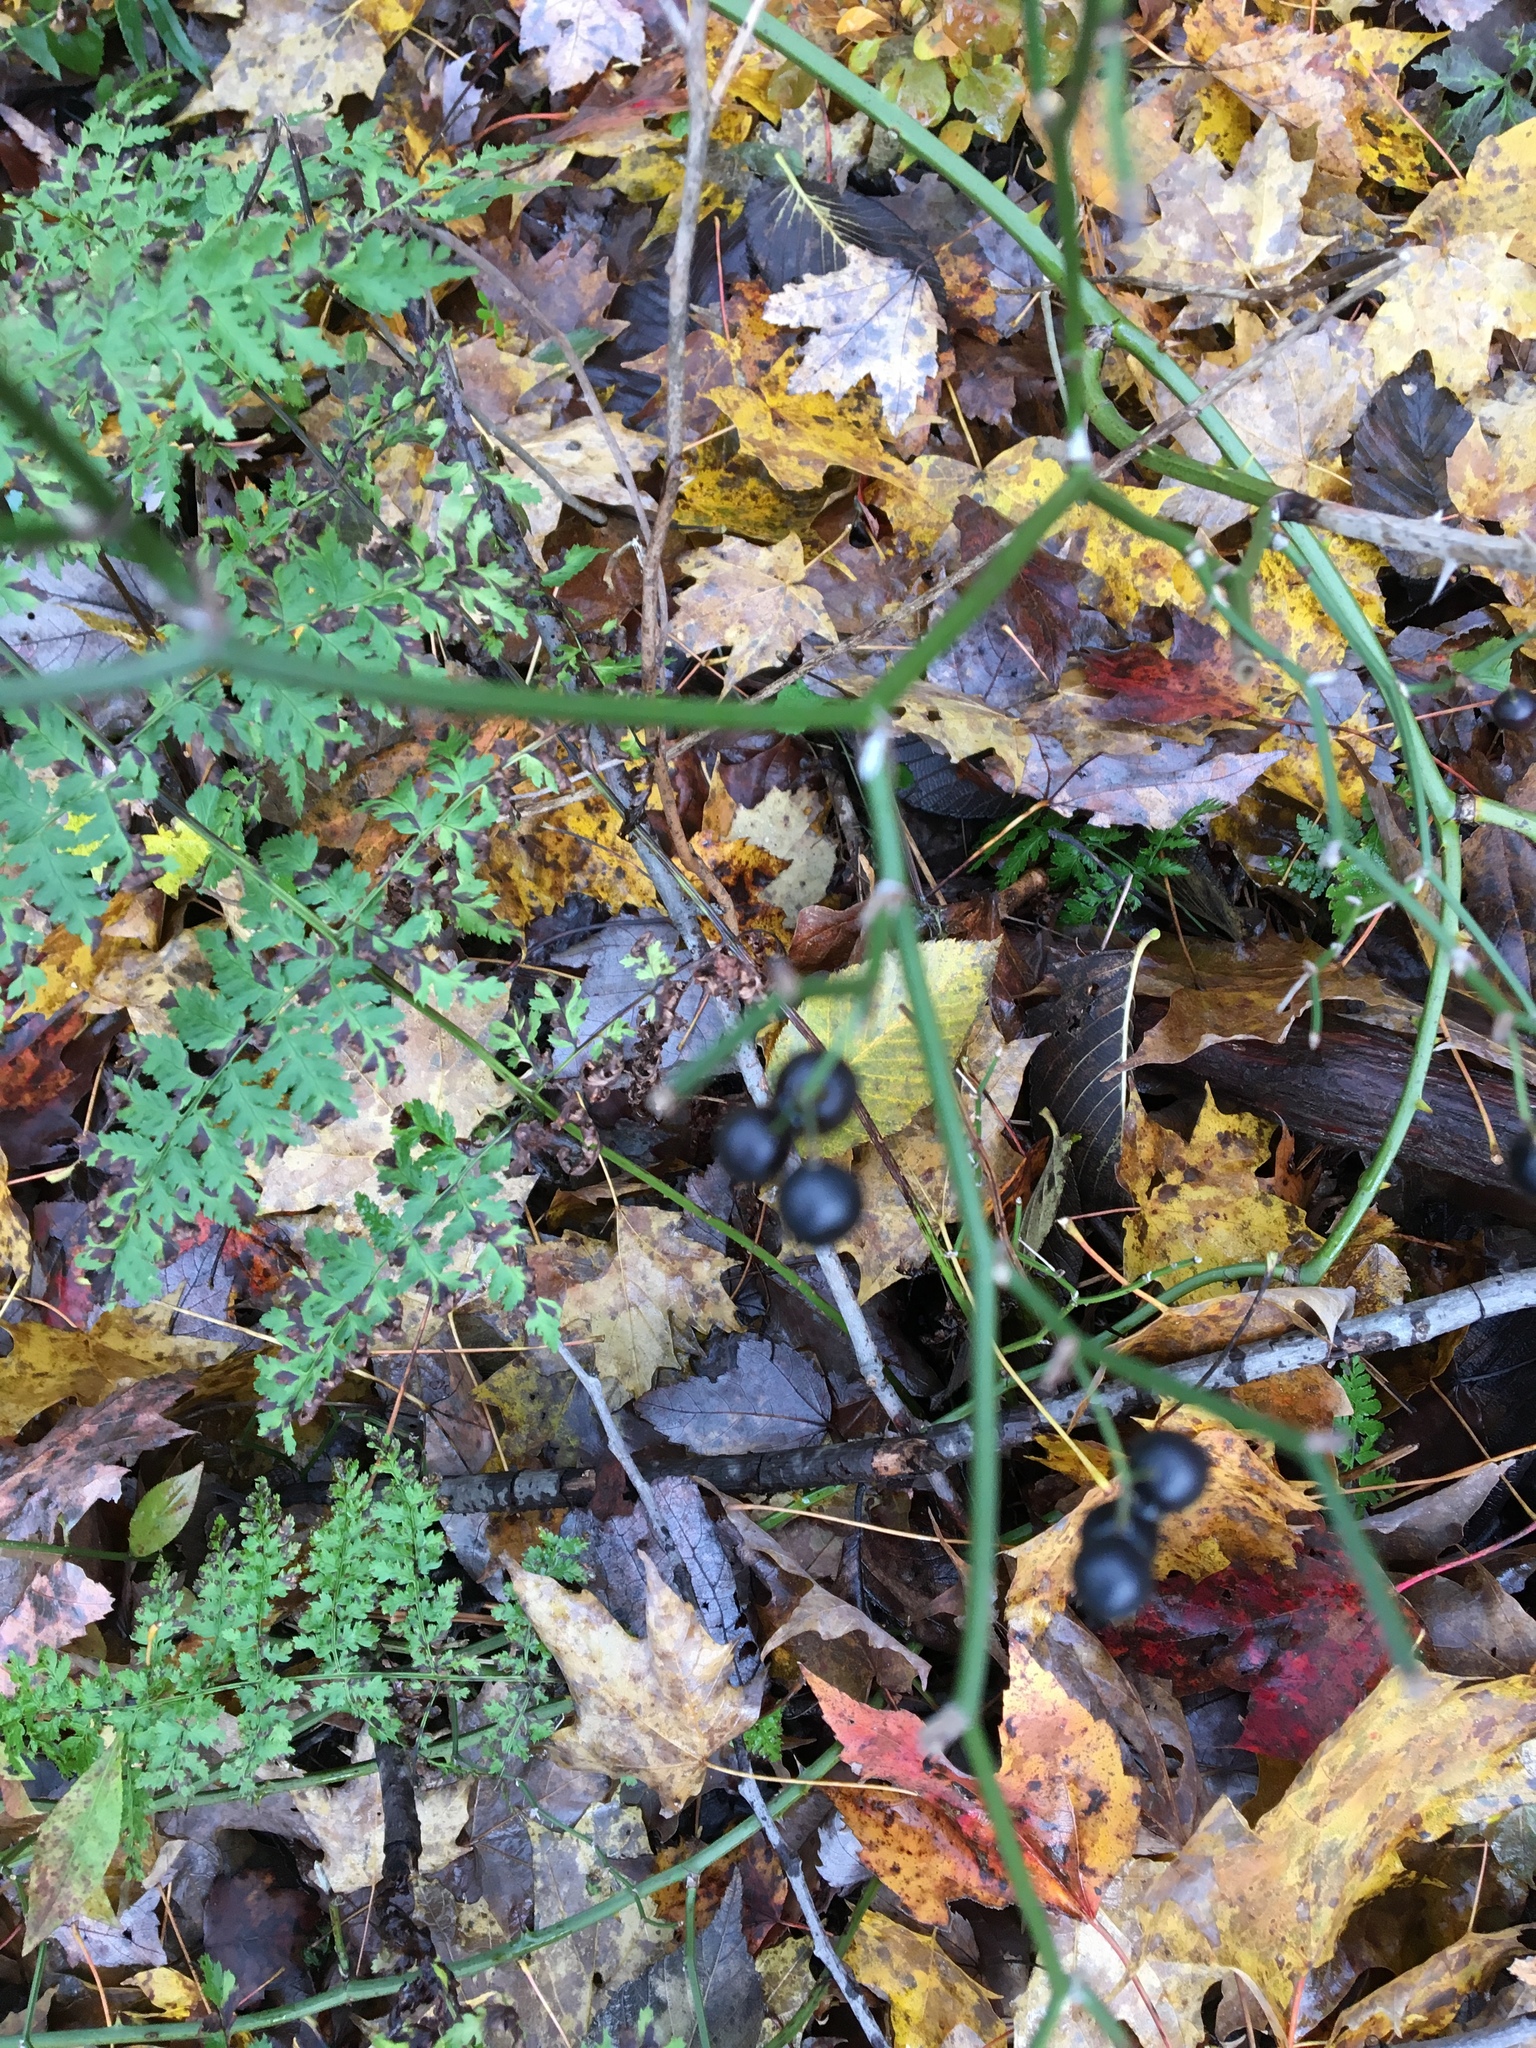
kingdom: Plantae
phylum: Tracheophyta
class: Liliopsida
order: Liliales
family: Smilacaceae
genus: Smilax
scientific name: Smilax rotundifolia
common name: Bullbriar
